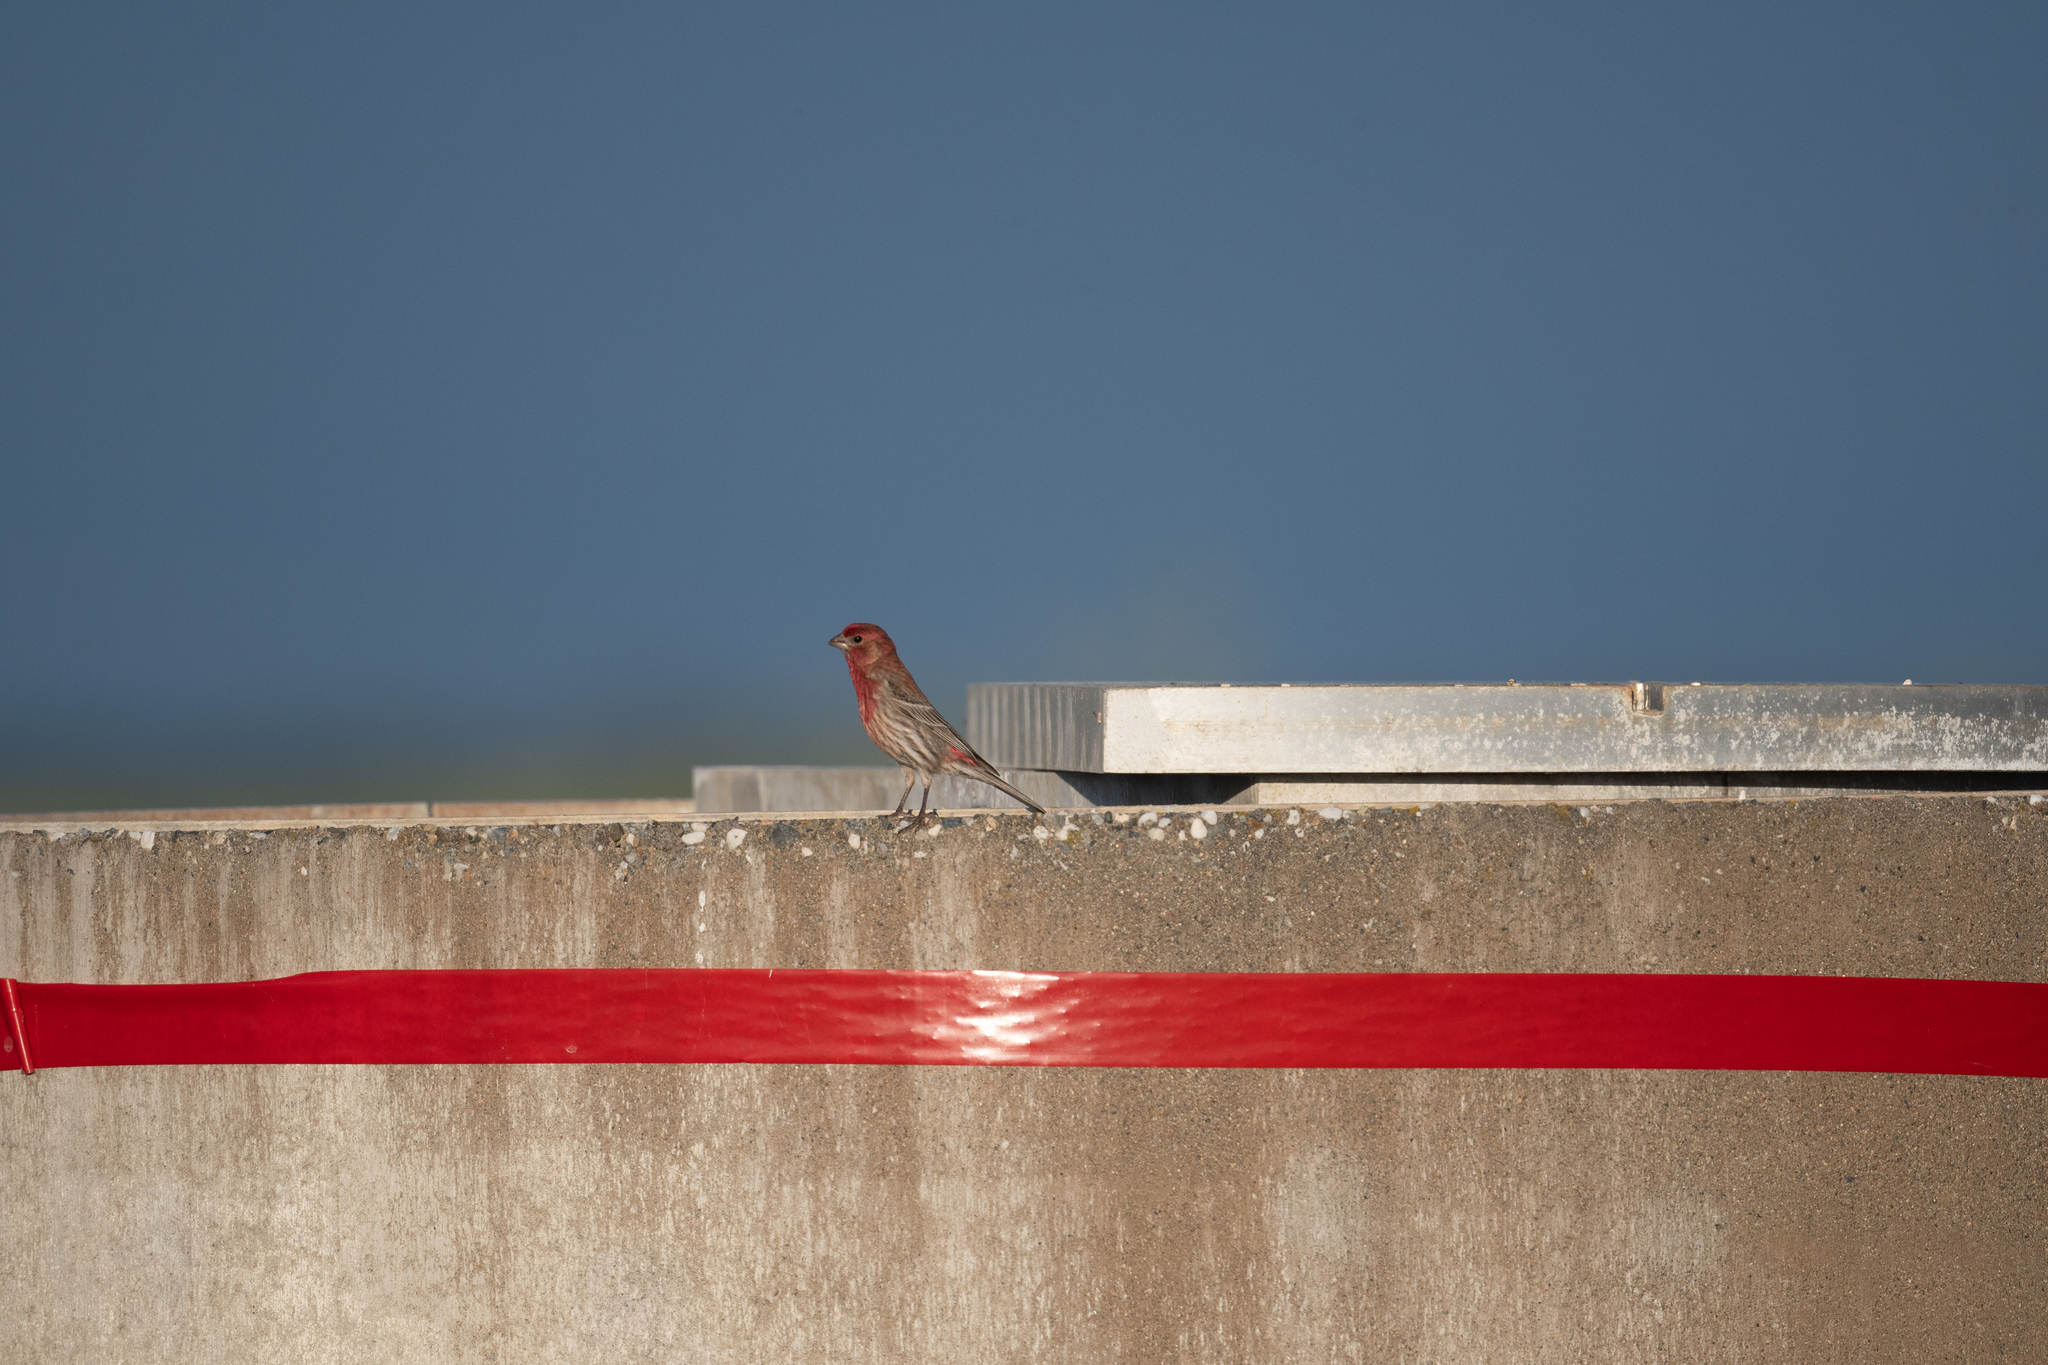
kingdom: Animalia
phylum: Chordata
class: Aves
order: Passeriformes
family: Fringillidae
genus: Haemorhous
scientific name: Haemorhous mexicanus
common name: House finch
